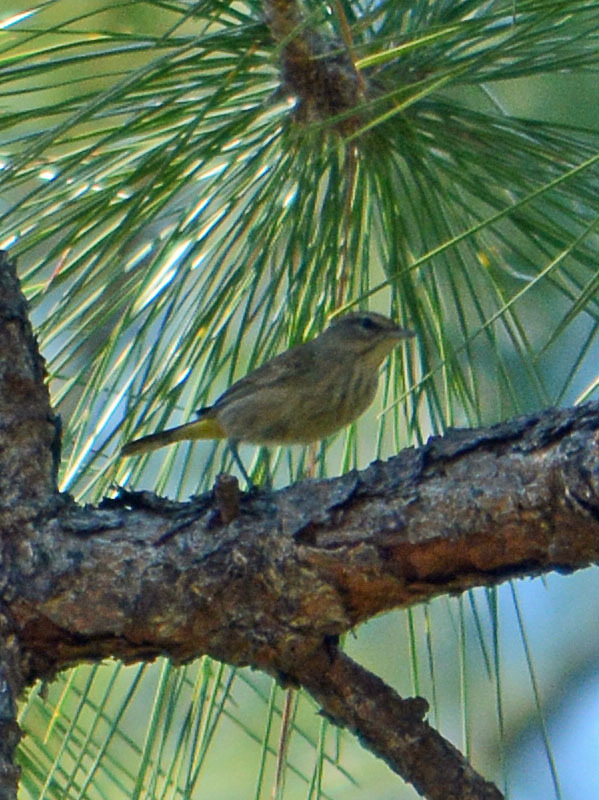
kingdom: Animalia
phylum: Chordata
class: Aves
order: Passeriformes
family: Parulidae
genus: Setophaga
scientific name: Setophaga palmarum
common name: Palm warbler
